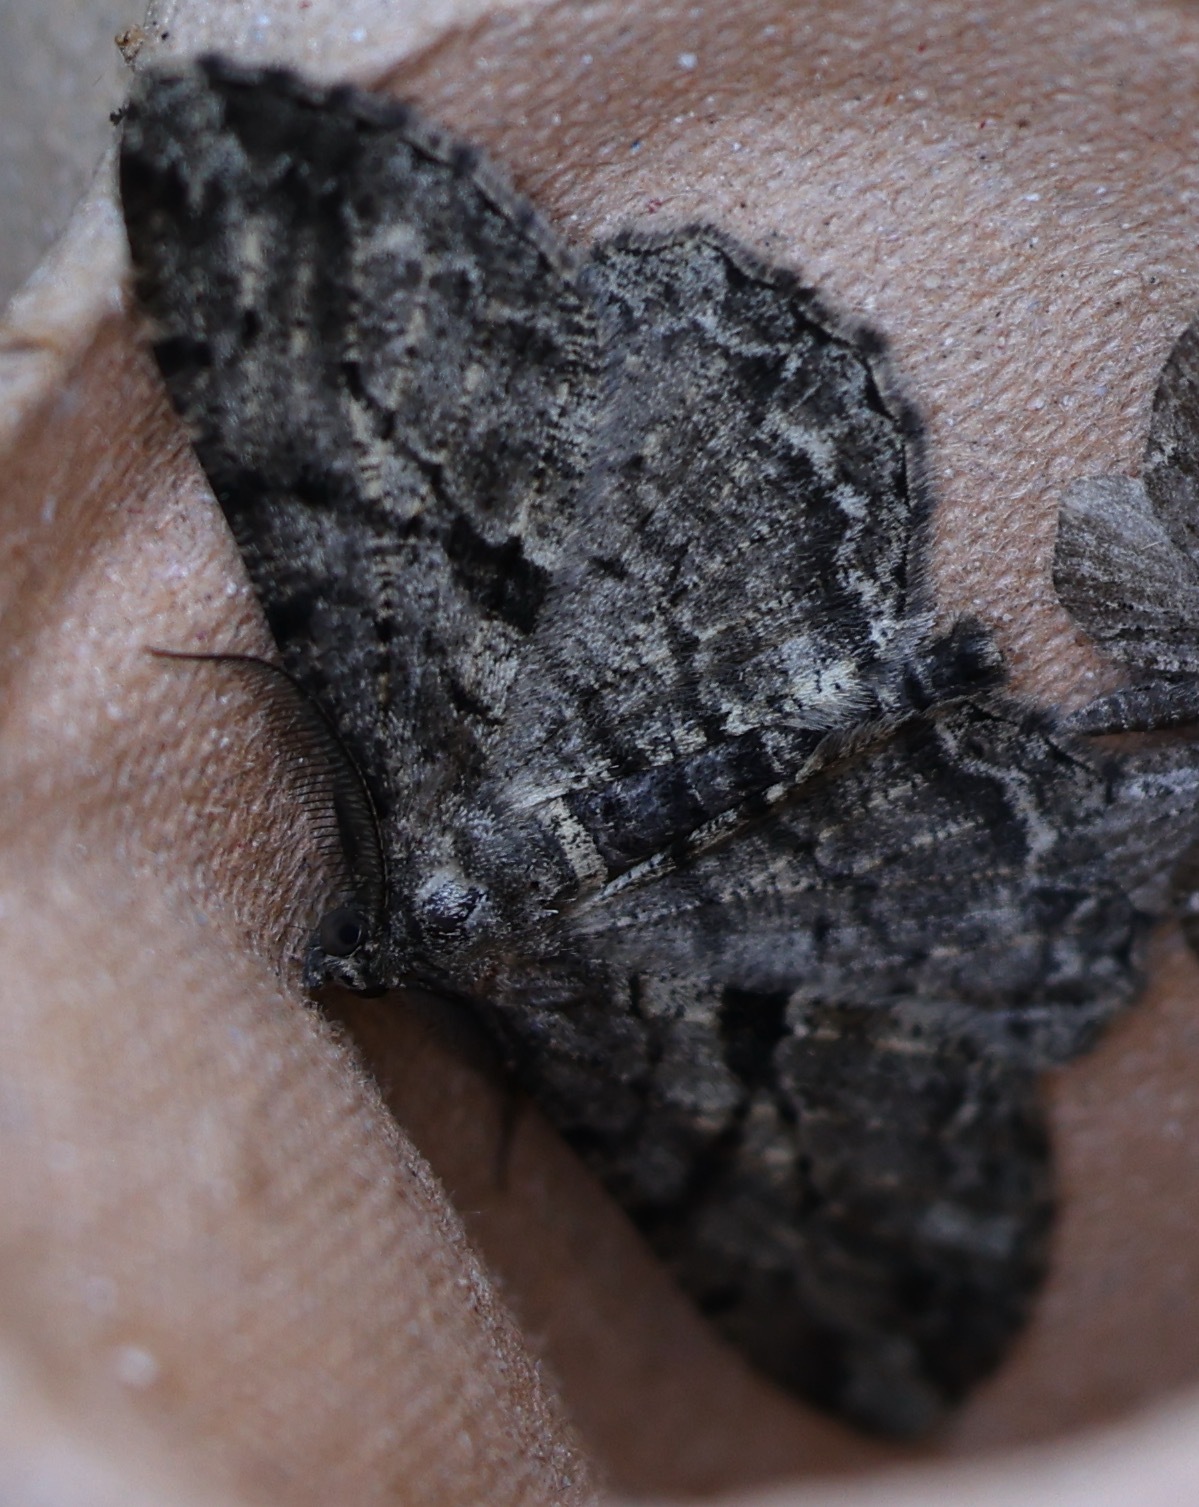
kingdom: Animalia
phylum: Arthropoda
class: Insecta
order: Lepidoptera
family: Geometridae
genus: Peribatodes
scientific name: Peribatodes rhomboidaria
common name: Willow beauty
